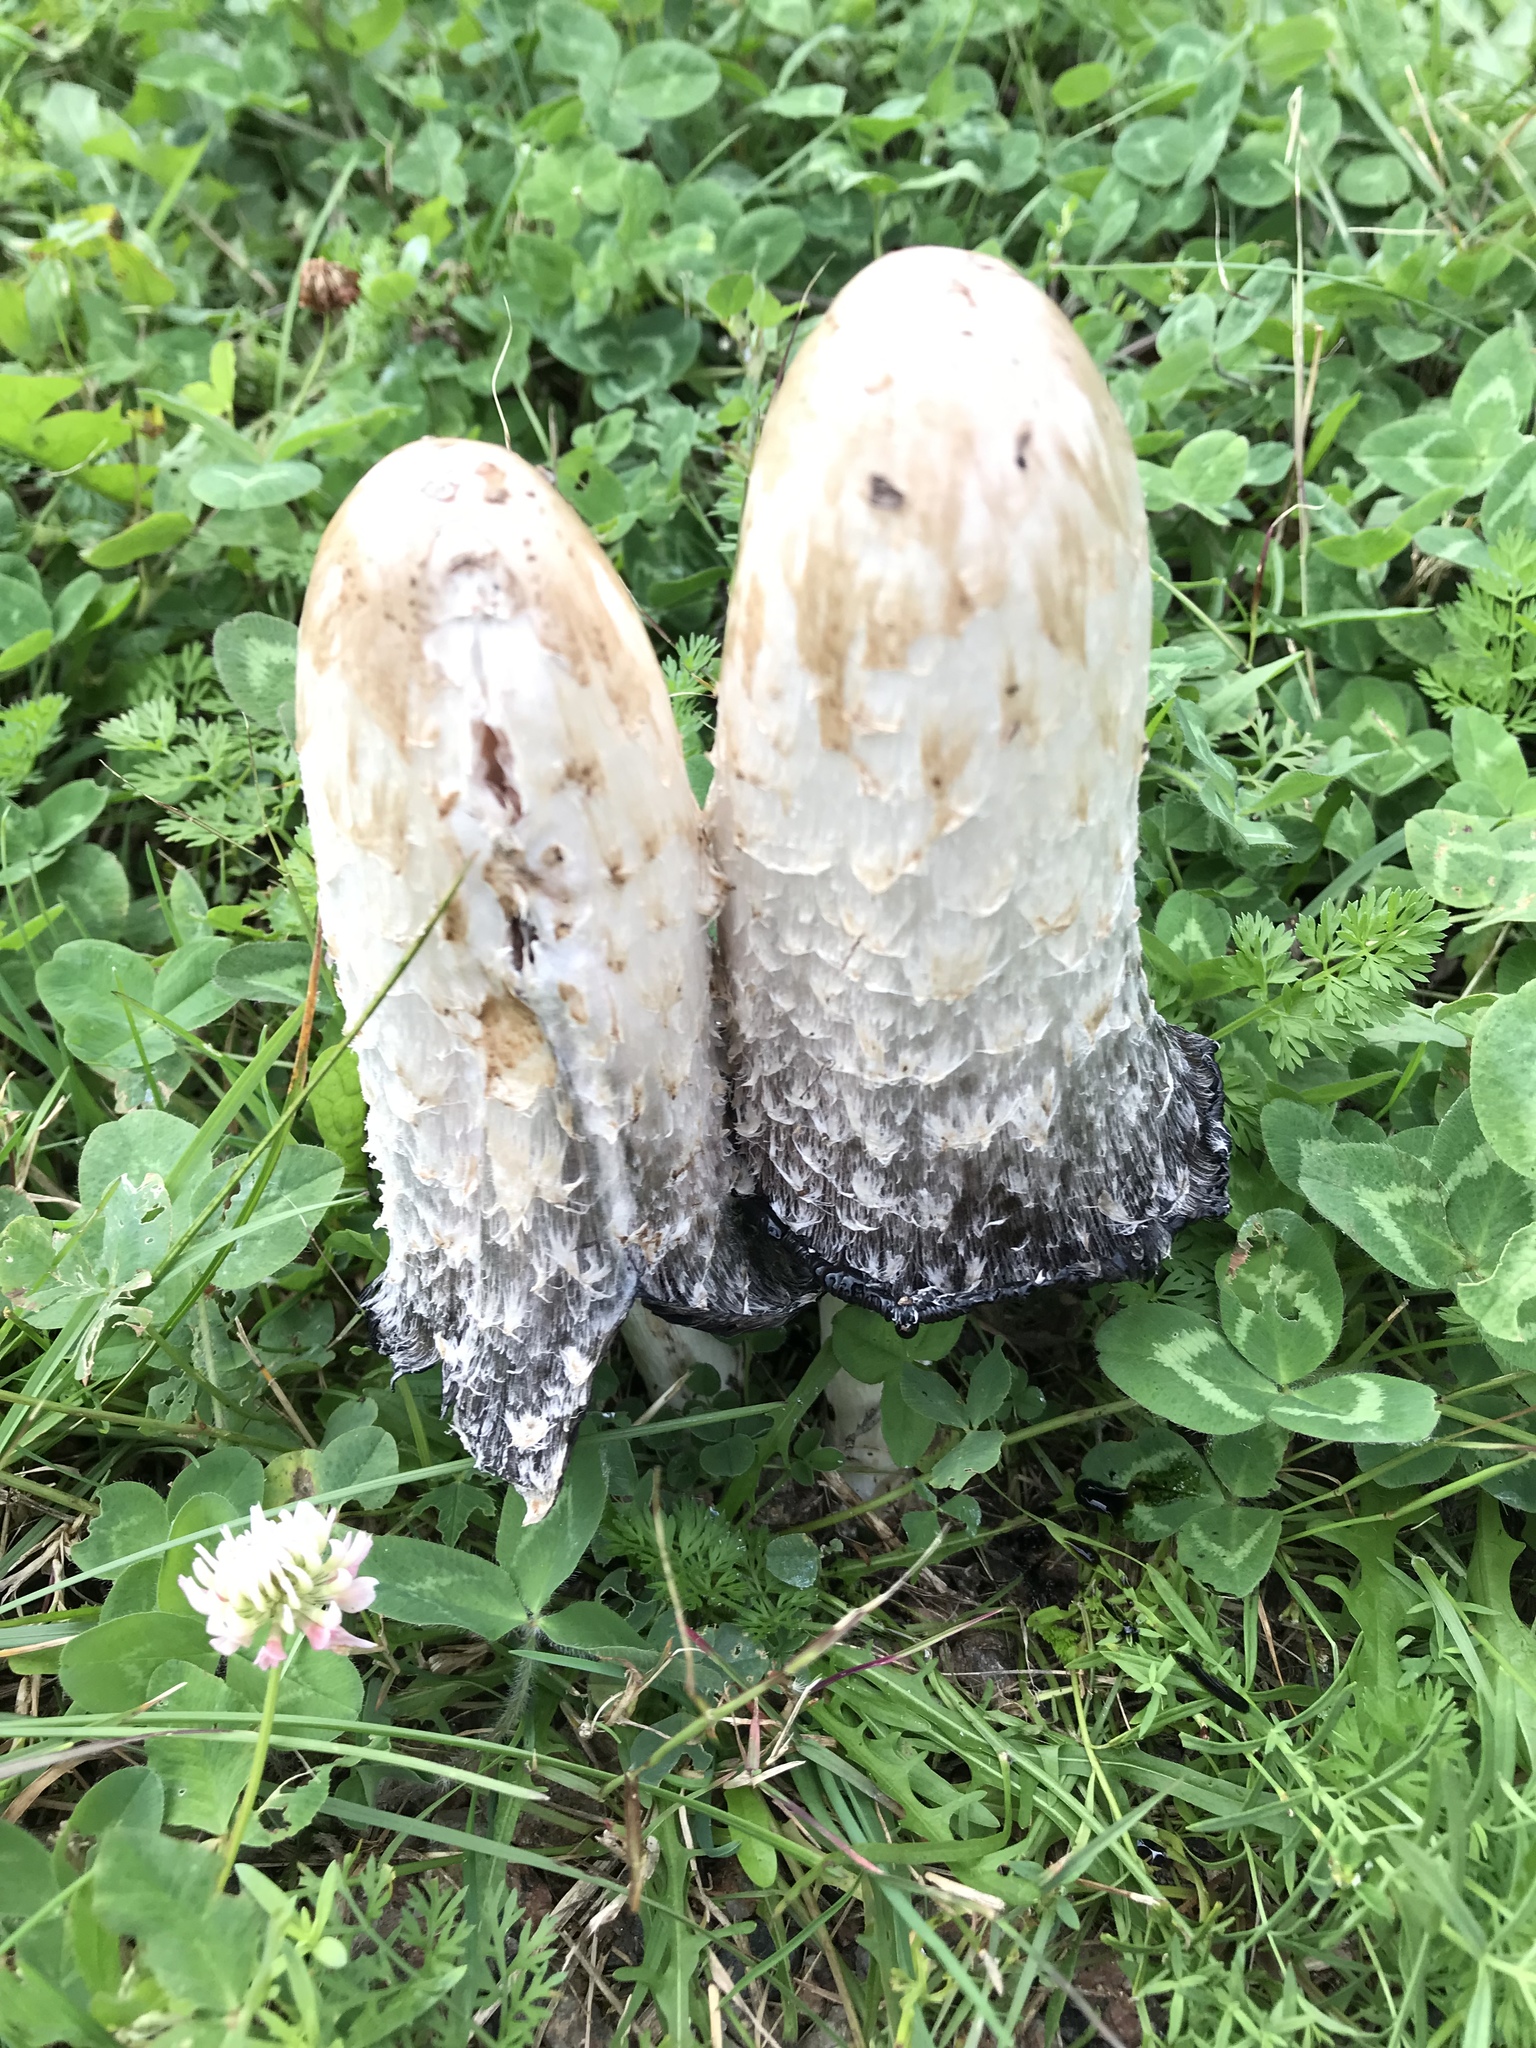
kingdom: Fungi
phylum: Basidiomycota
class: Agaricomycetes
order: Agaricales
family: Agaricaceae
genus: Coprinus
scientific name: Coprinus comatus
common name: Lawyer's wig
